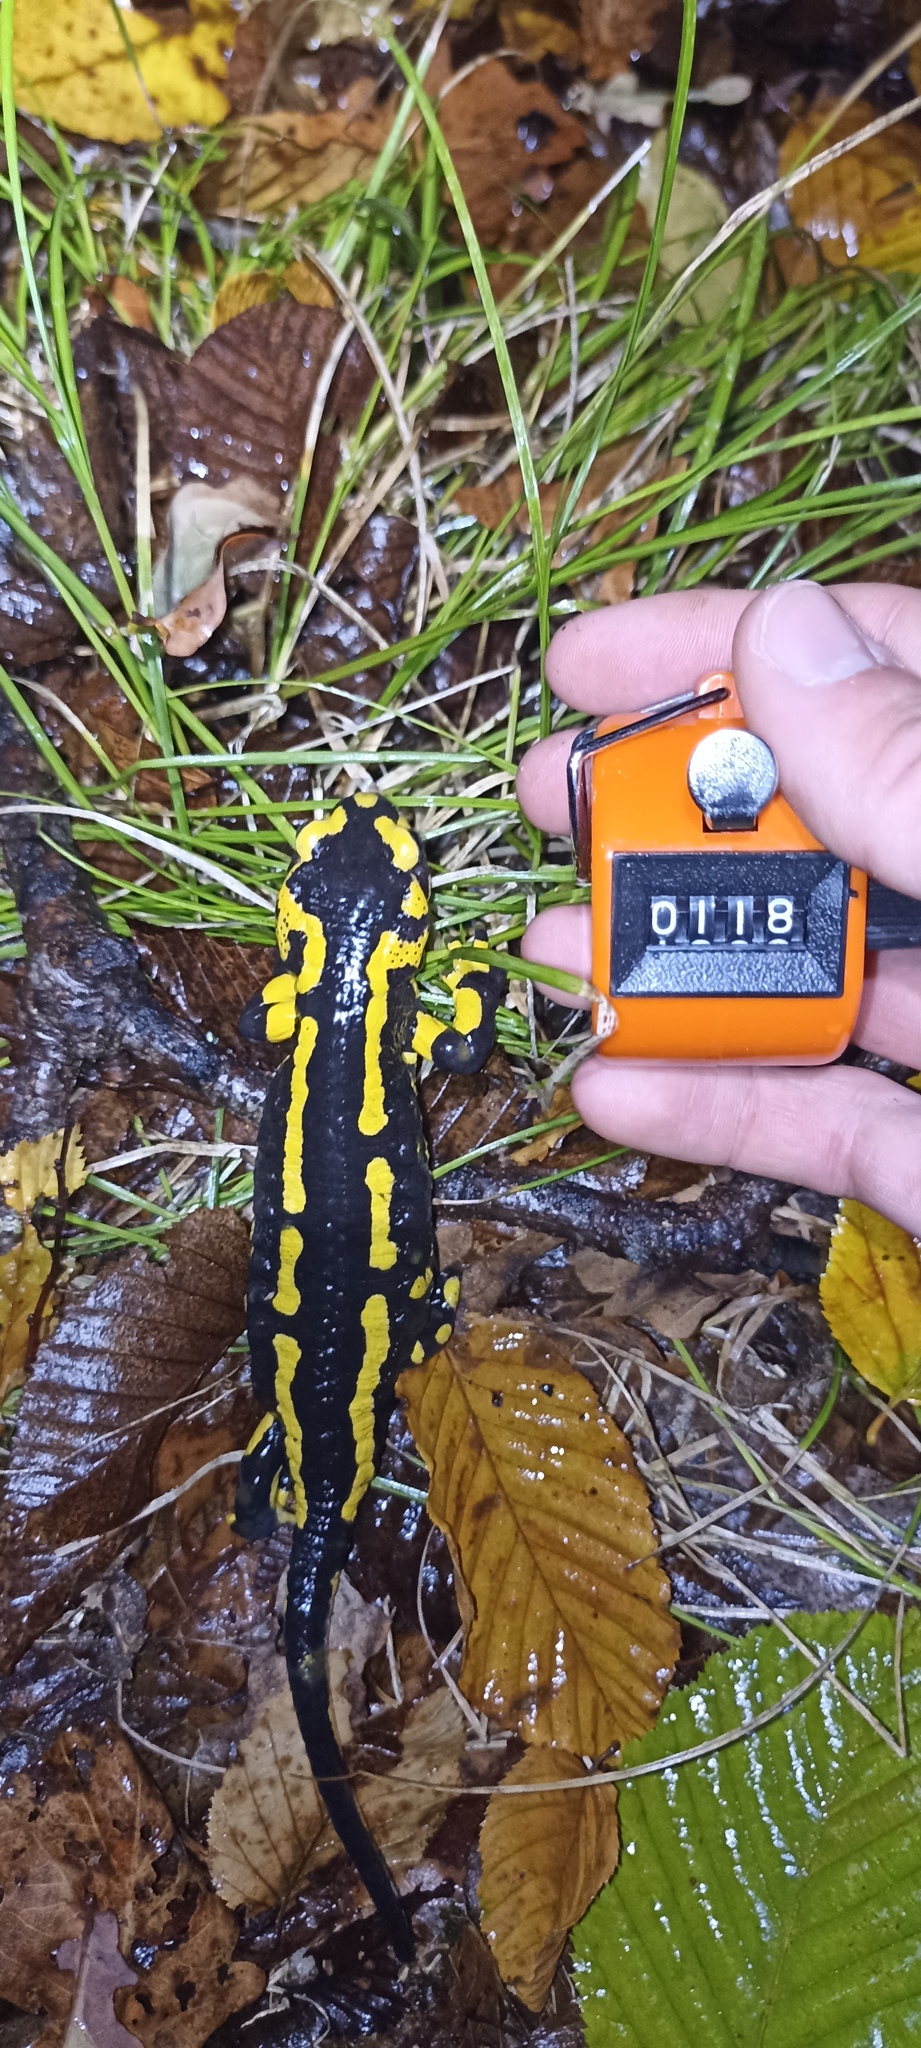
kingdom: Animalia
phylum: Chordata
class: Amphibia
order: Caudata
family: Salamandridae
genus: Salamandra
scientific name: Salamandra salamandra
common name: Fire salamander
